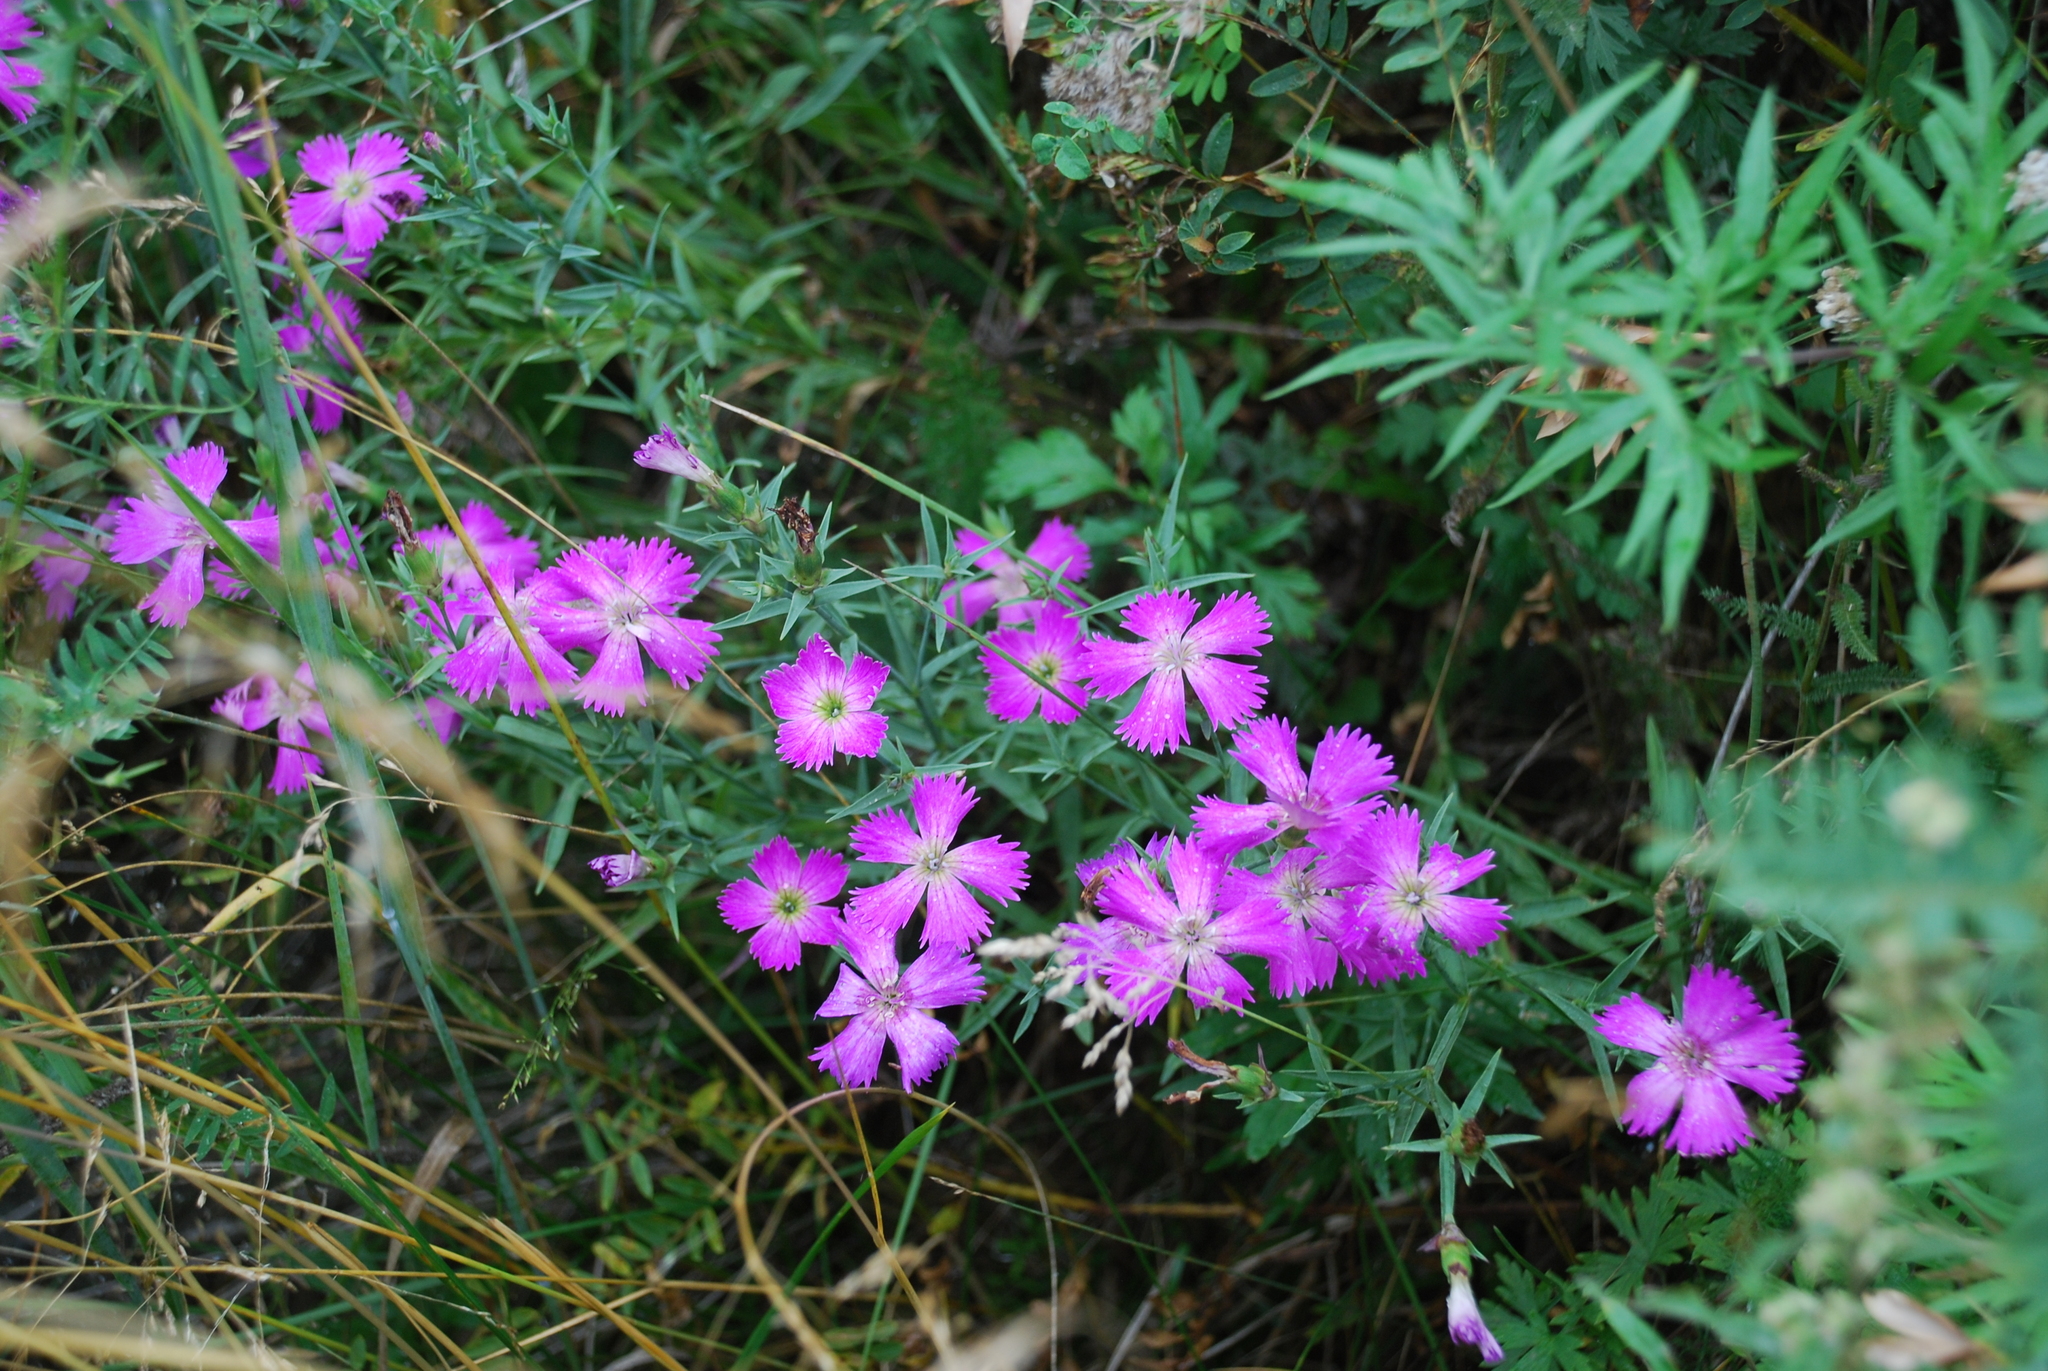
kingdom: Plantae
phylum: Tracheophyta
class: Magnoliopsida
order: Caryophyllales
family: Caryophyllaceae
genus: Dianthus
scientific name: Dianthus chinensis
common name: Rainbow pink
